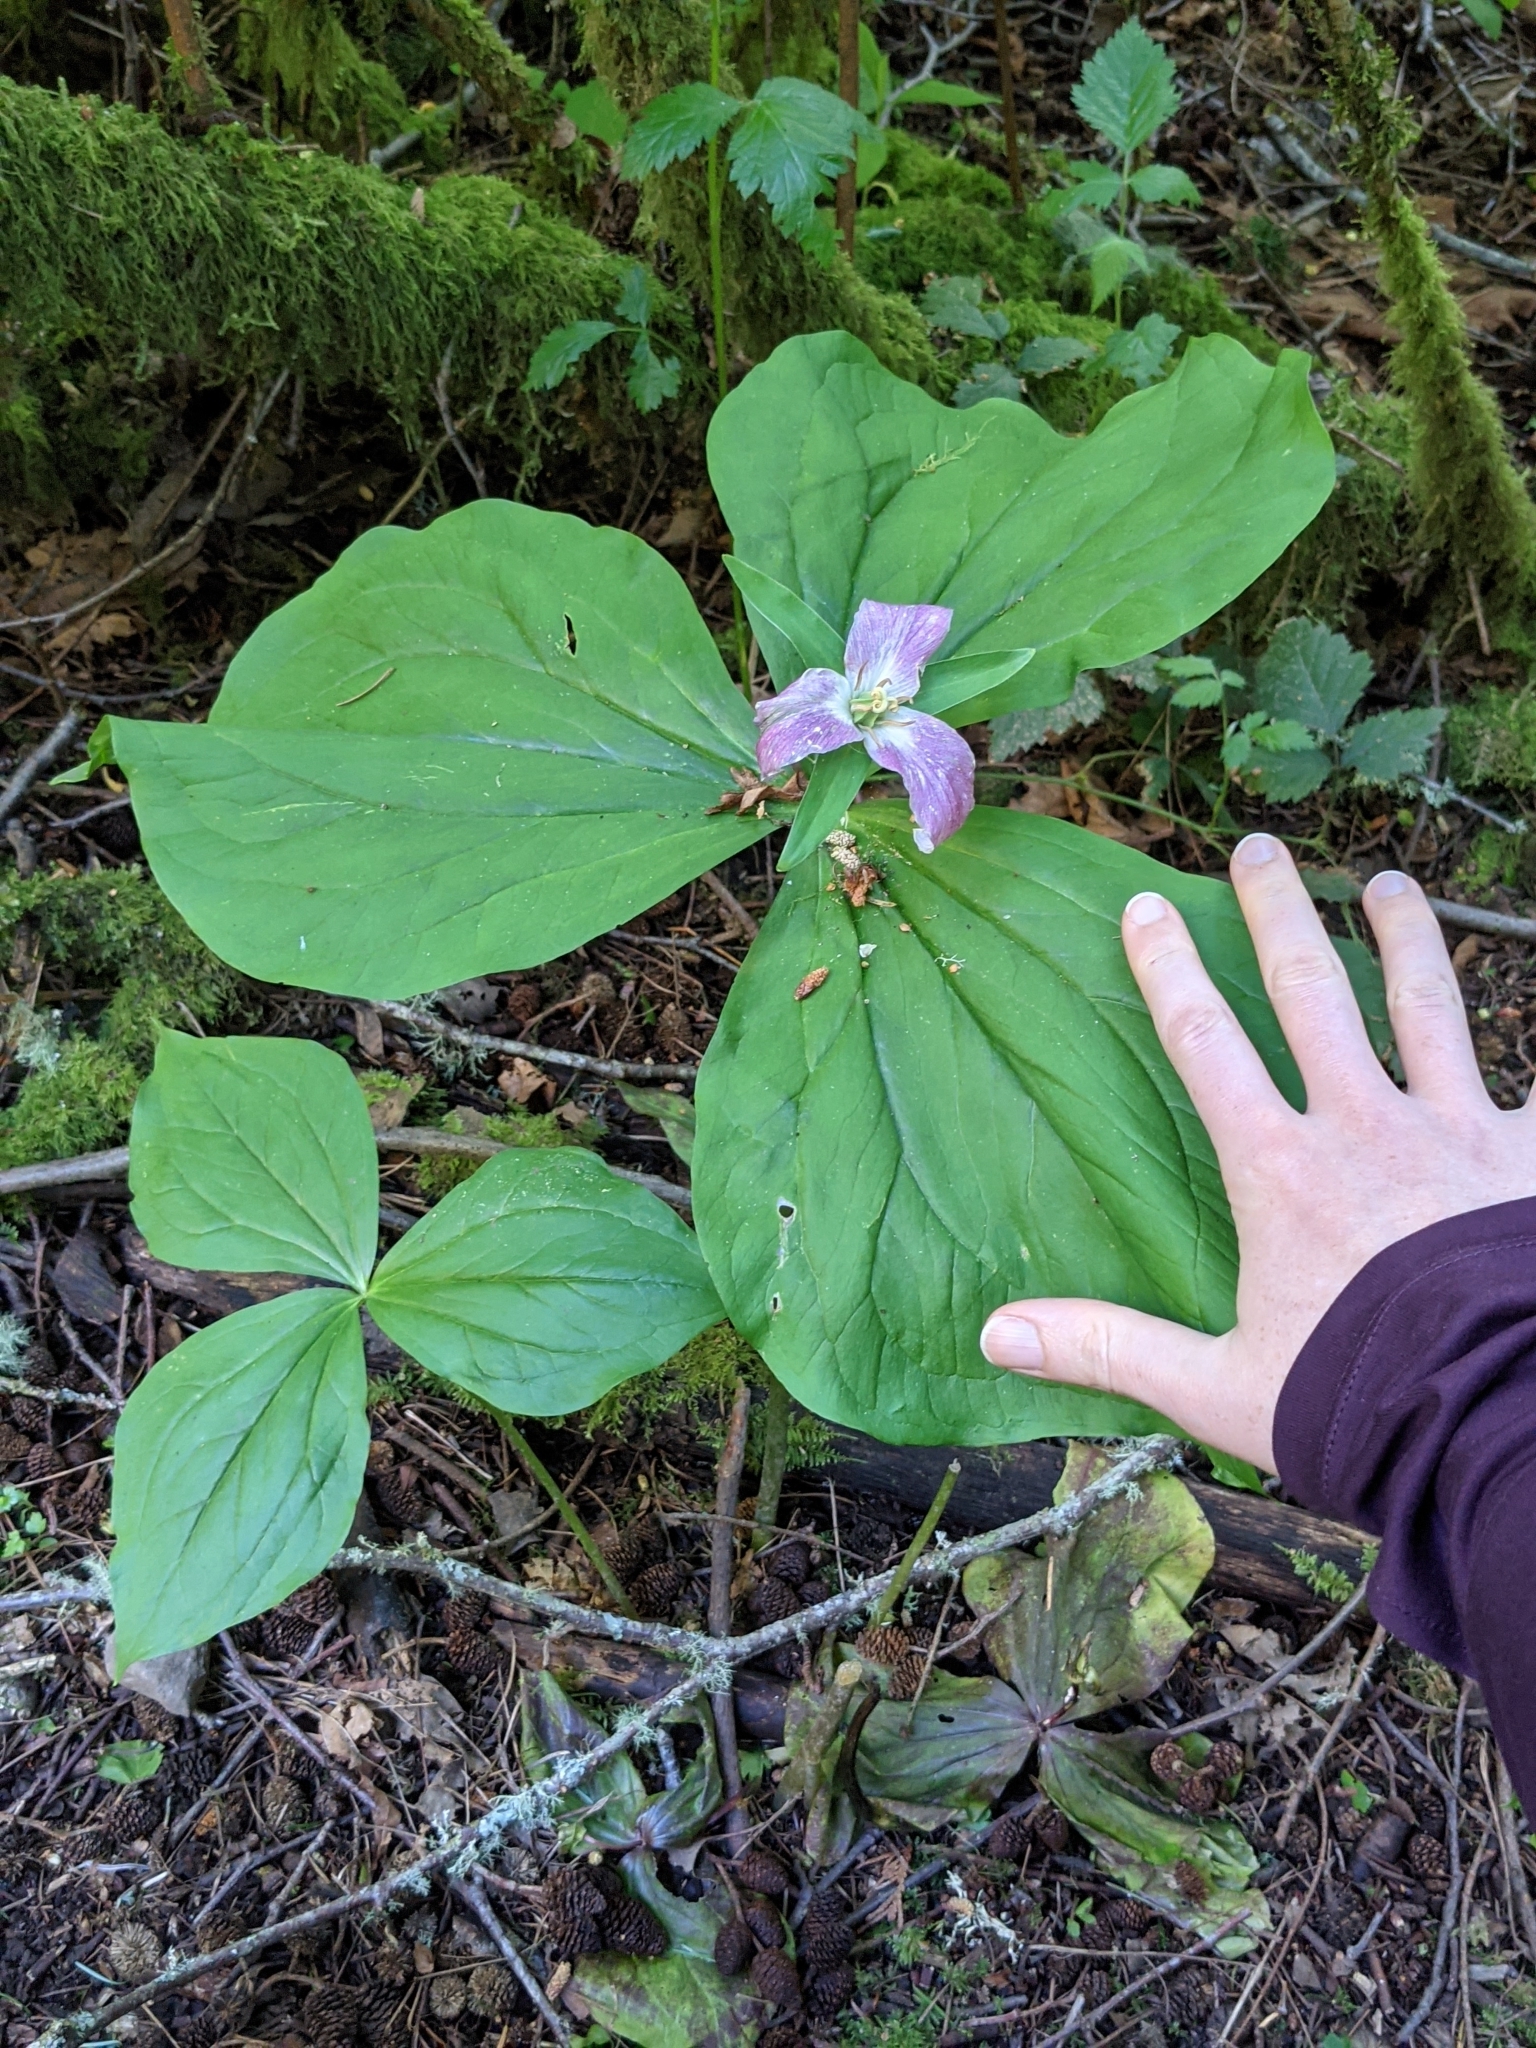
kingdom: Plantae
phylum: Tracheophyta
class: Liliopsida
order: Liliales
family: Melanthiaceae
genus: Trillium
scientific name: Trillium ovatum
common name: Pacific trillium
